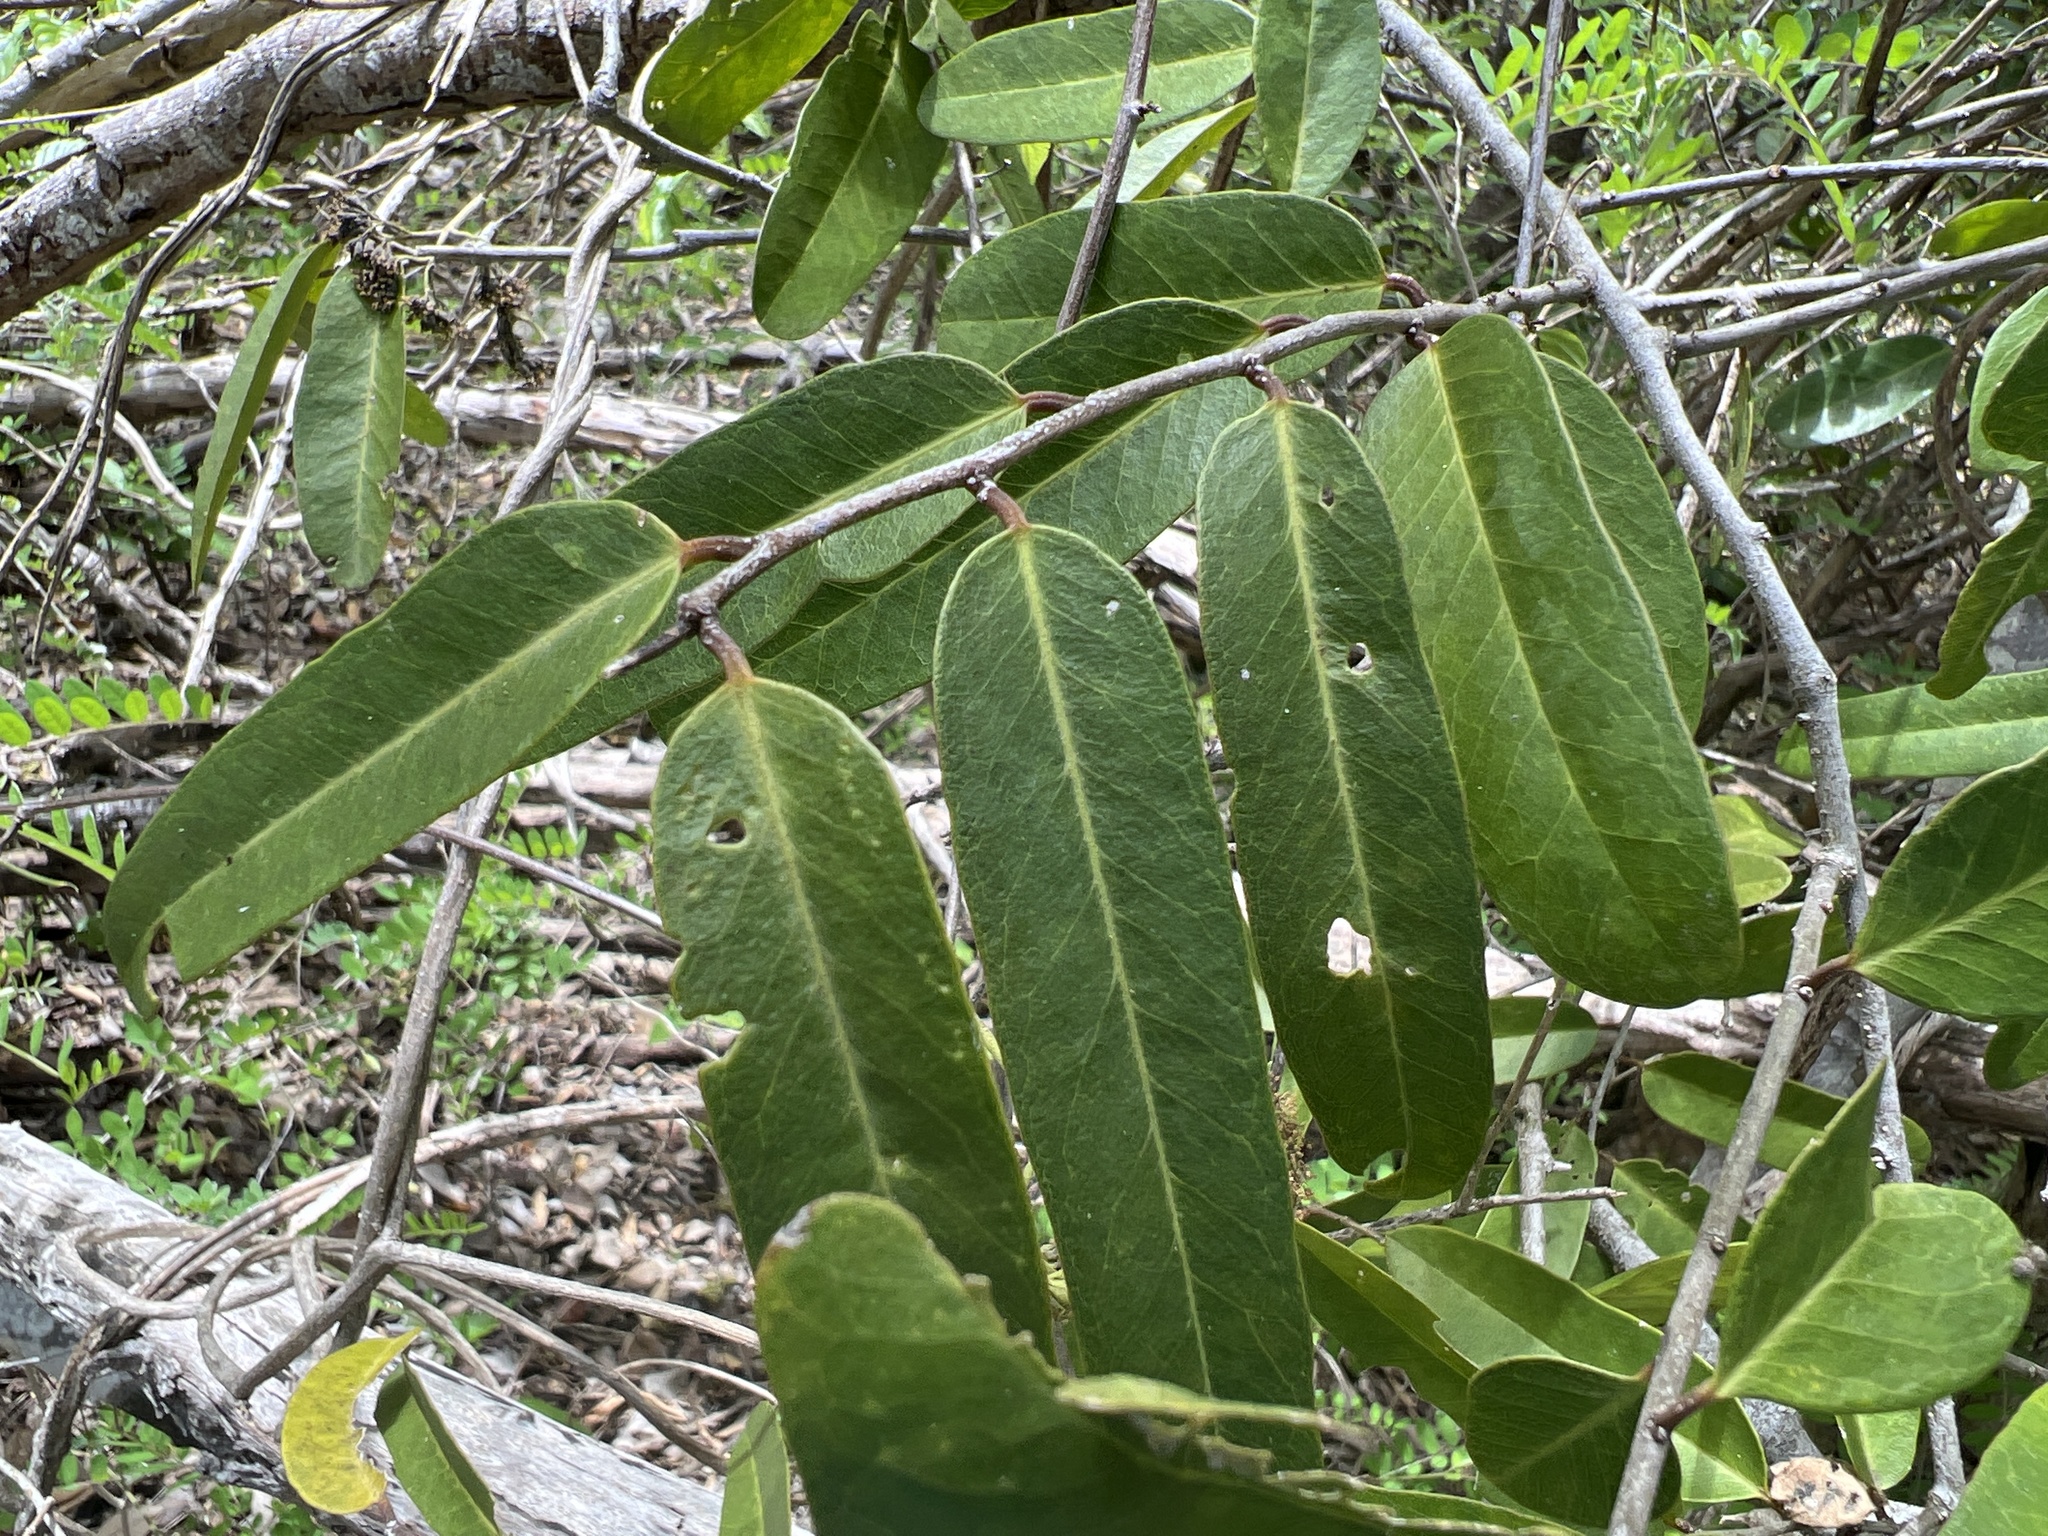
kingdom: Plantae
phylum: Tracheophyta
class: Magnoliopsida
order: Brassicales
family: Capparaceae
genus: Cynophalla
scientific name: Cynophalla flexuosa
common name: Capertree
